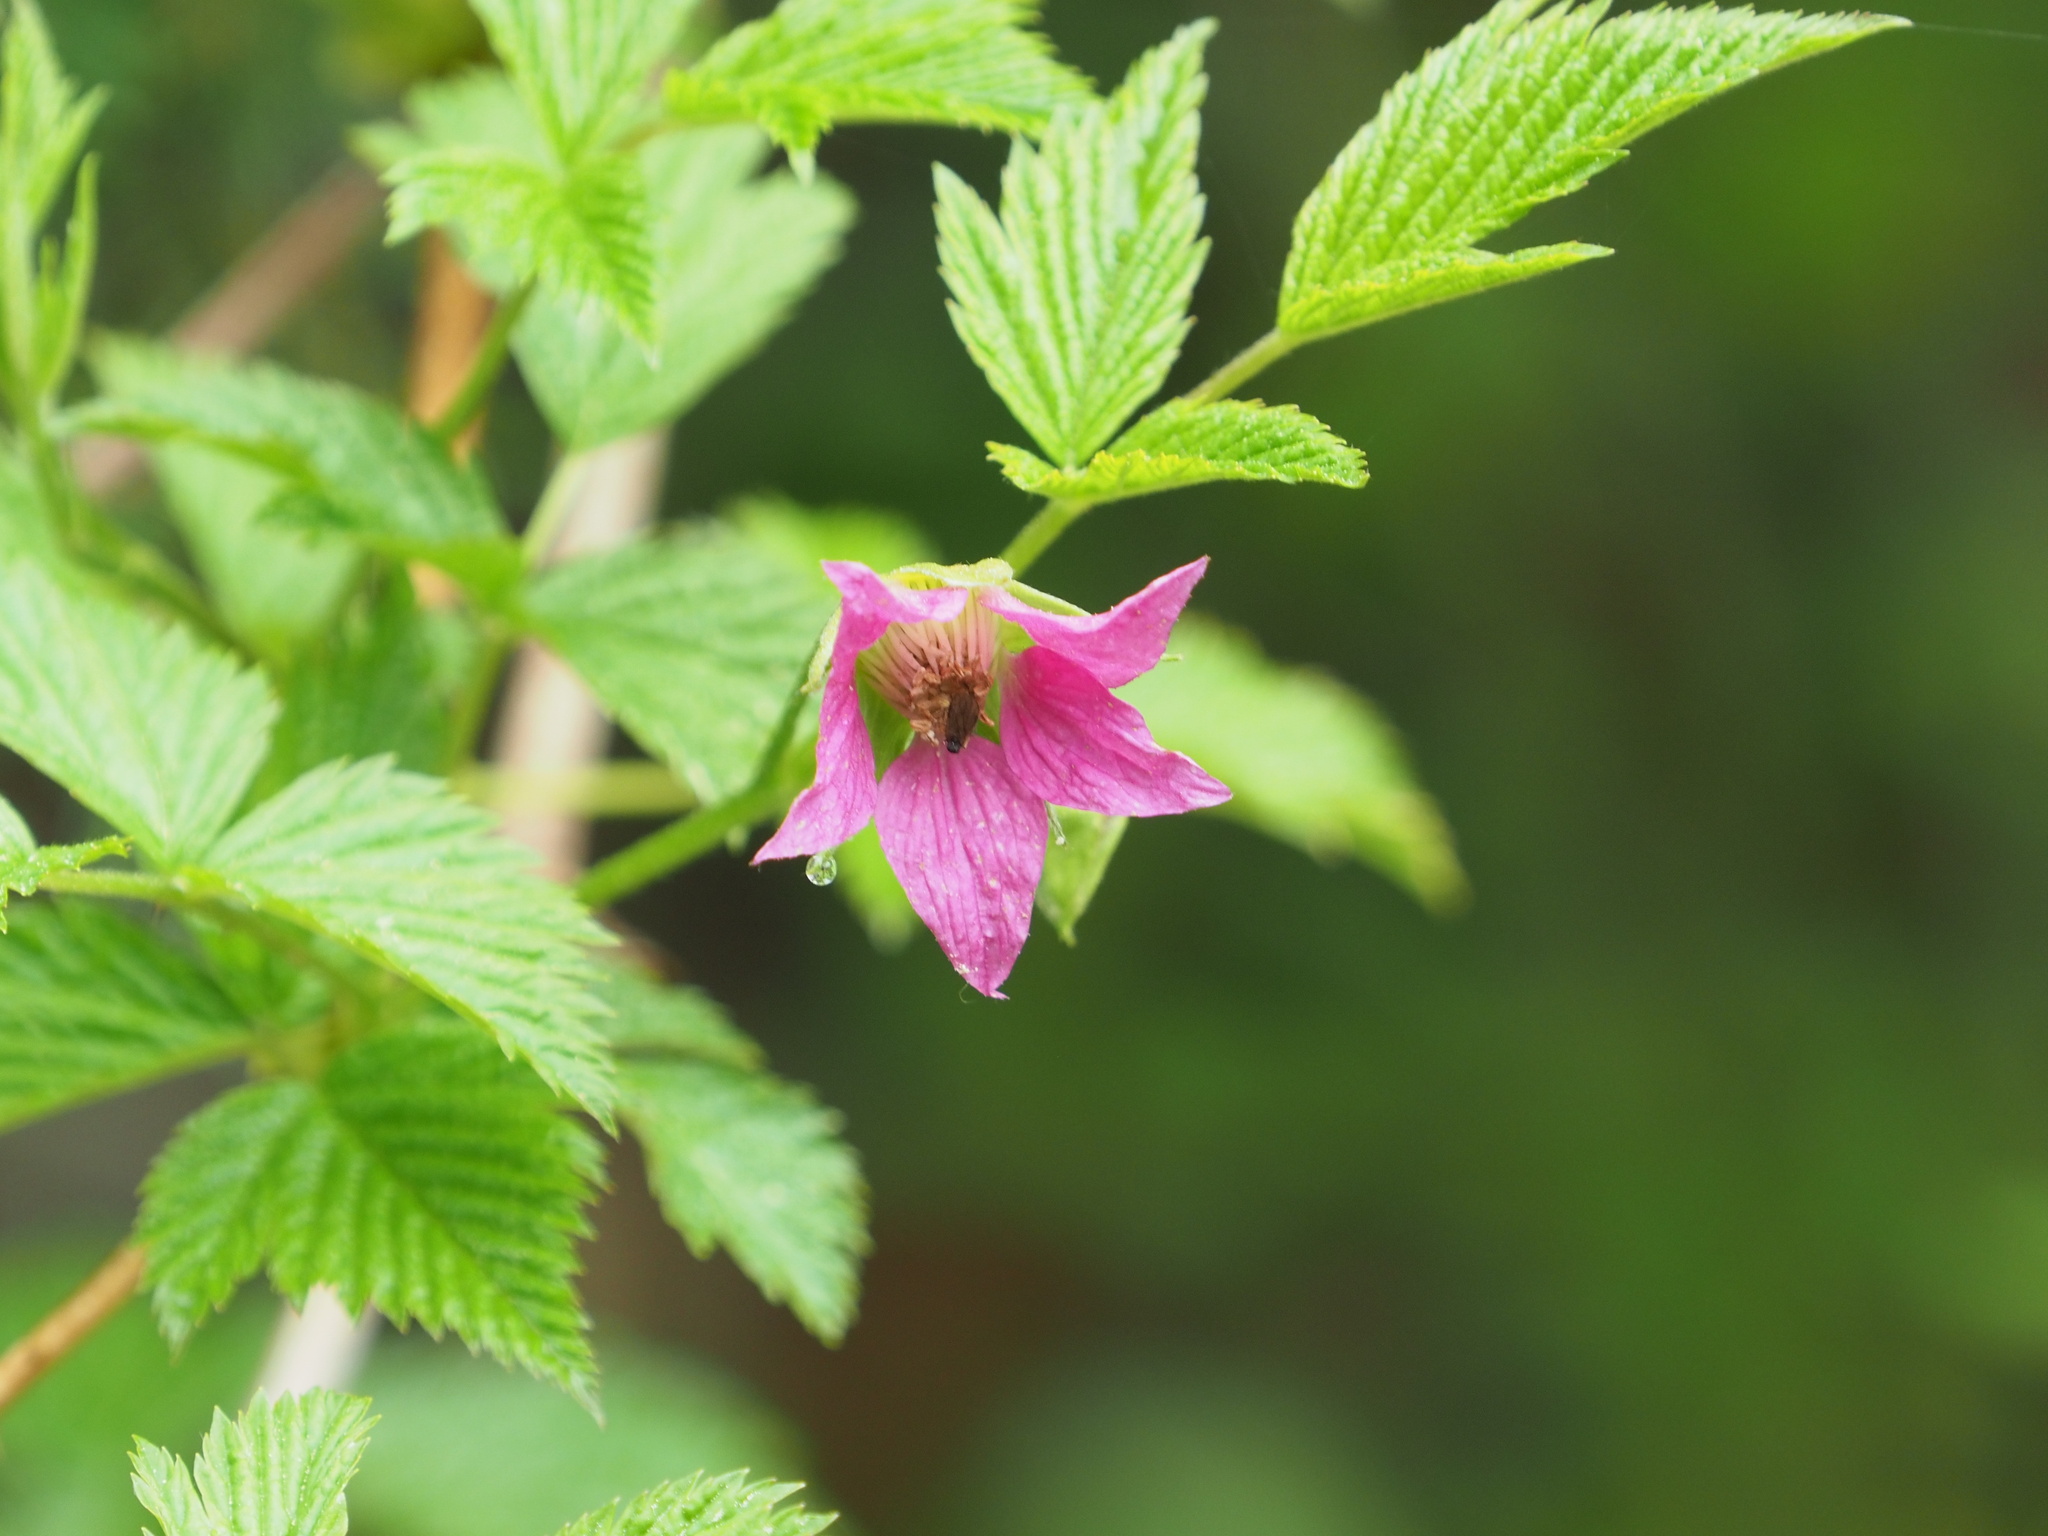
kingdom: Plantae
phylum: Tracheophyta
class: Magnoliopsida
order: Rosales
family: Rosaceae
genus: Rubus
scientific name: Rubus spectabilis
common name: Salmonberry
